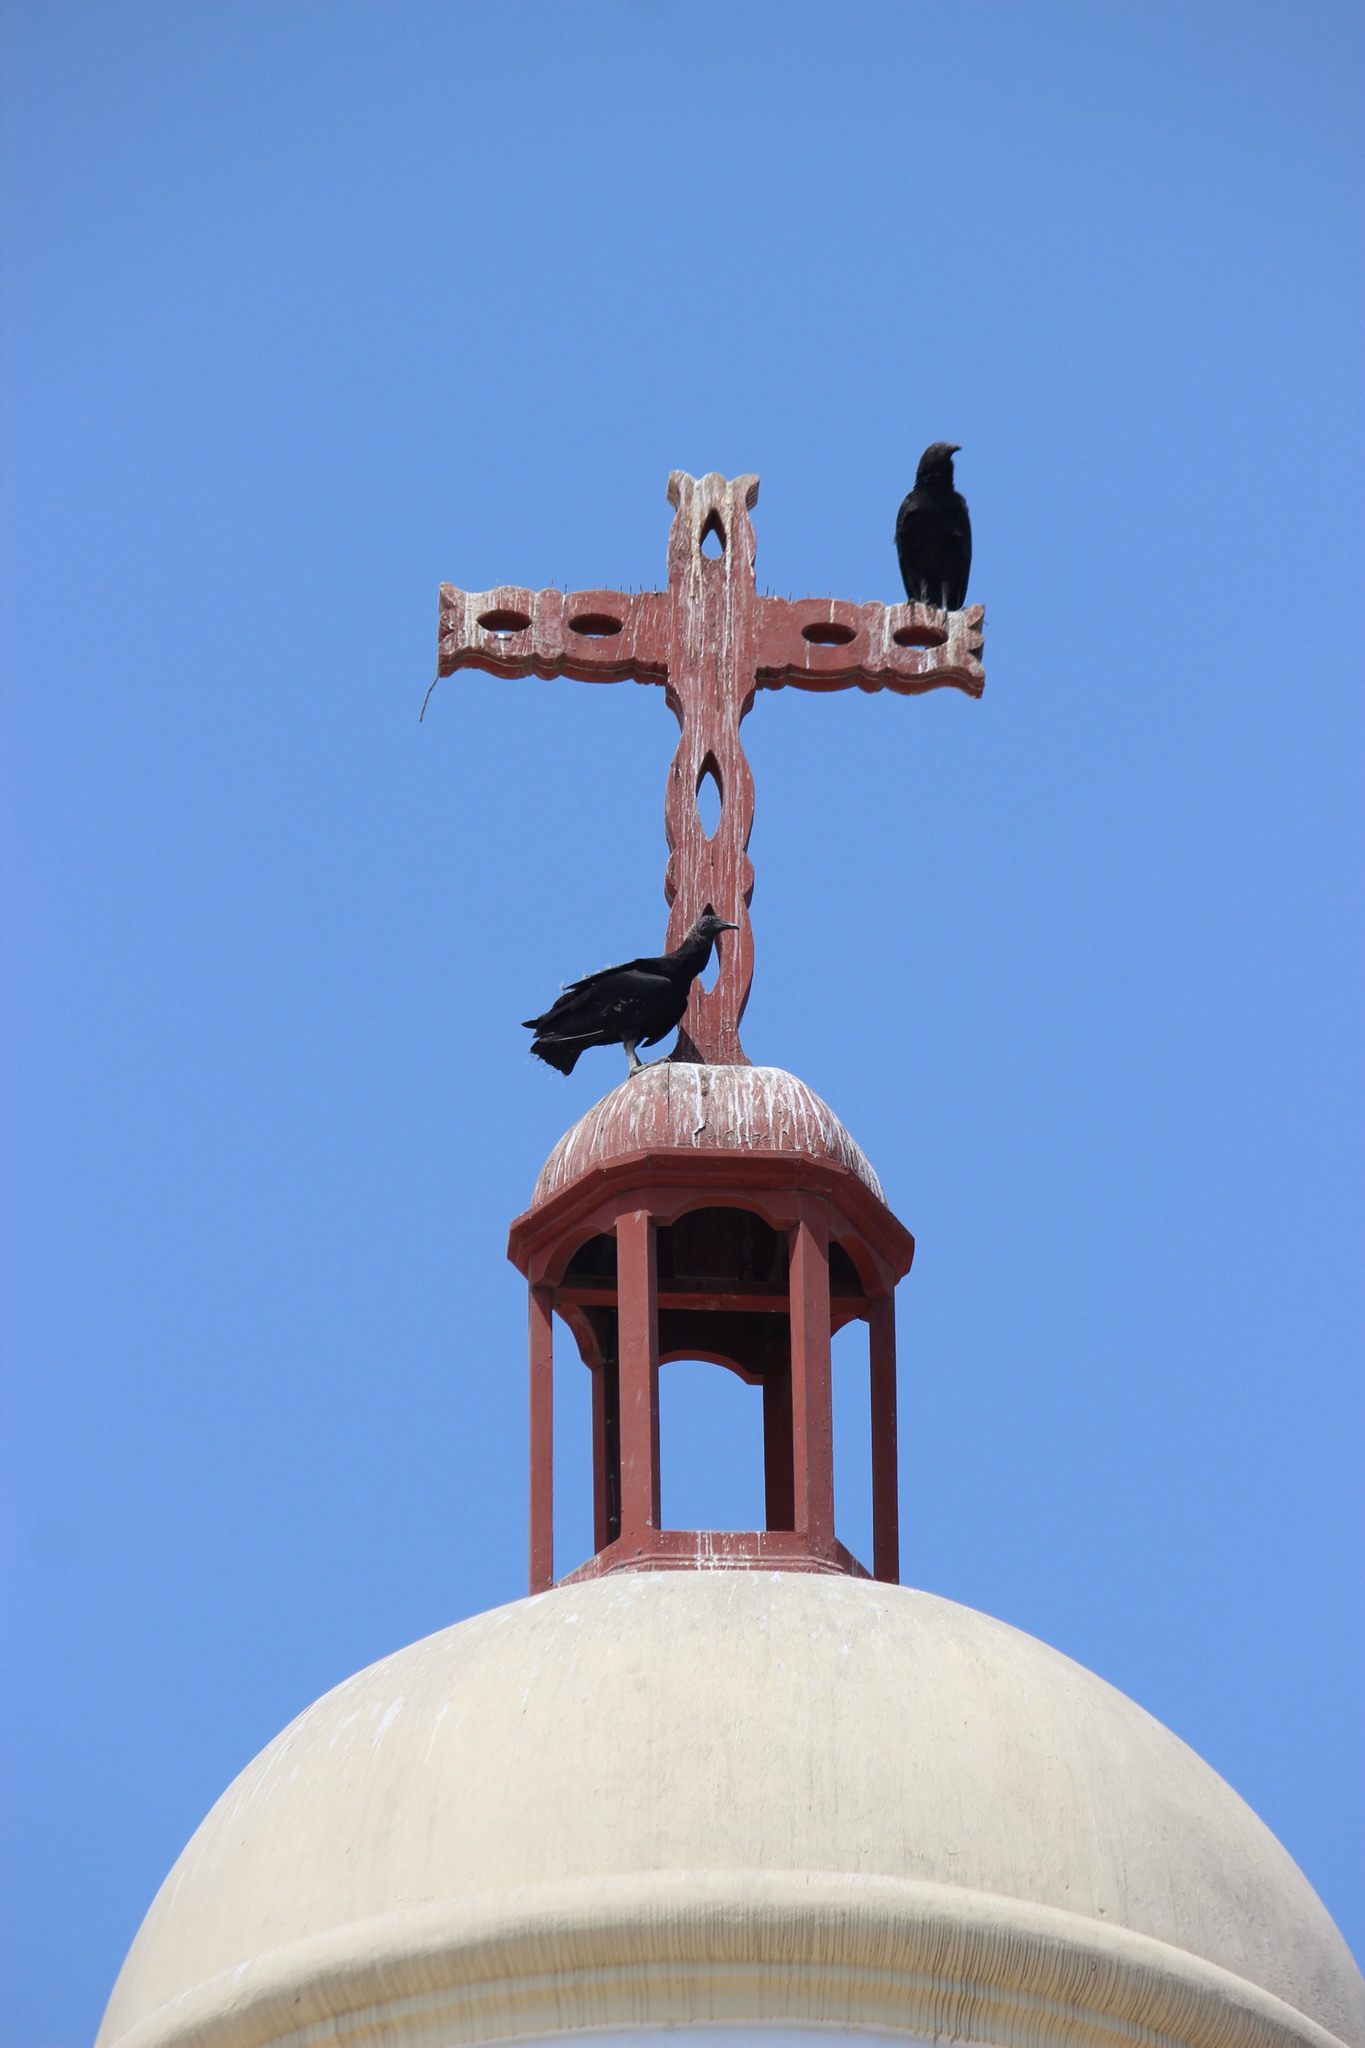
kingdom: Animalia
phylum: Chordata
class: Aves
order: Accipitriformes
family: Cathartidae
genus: Coragyps
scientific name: Coragyps atratus
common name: Black vulture
